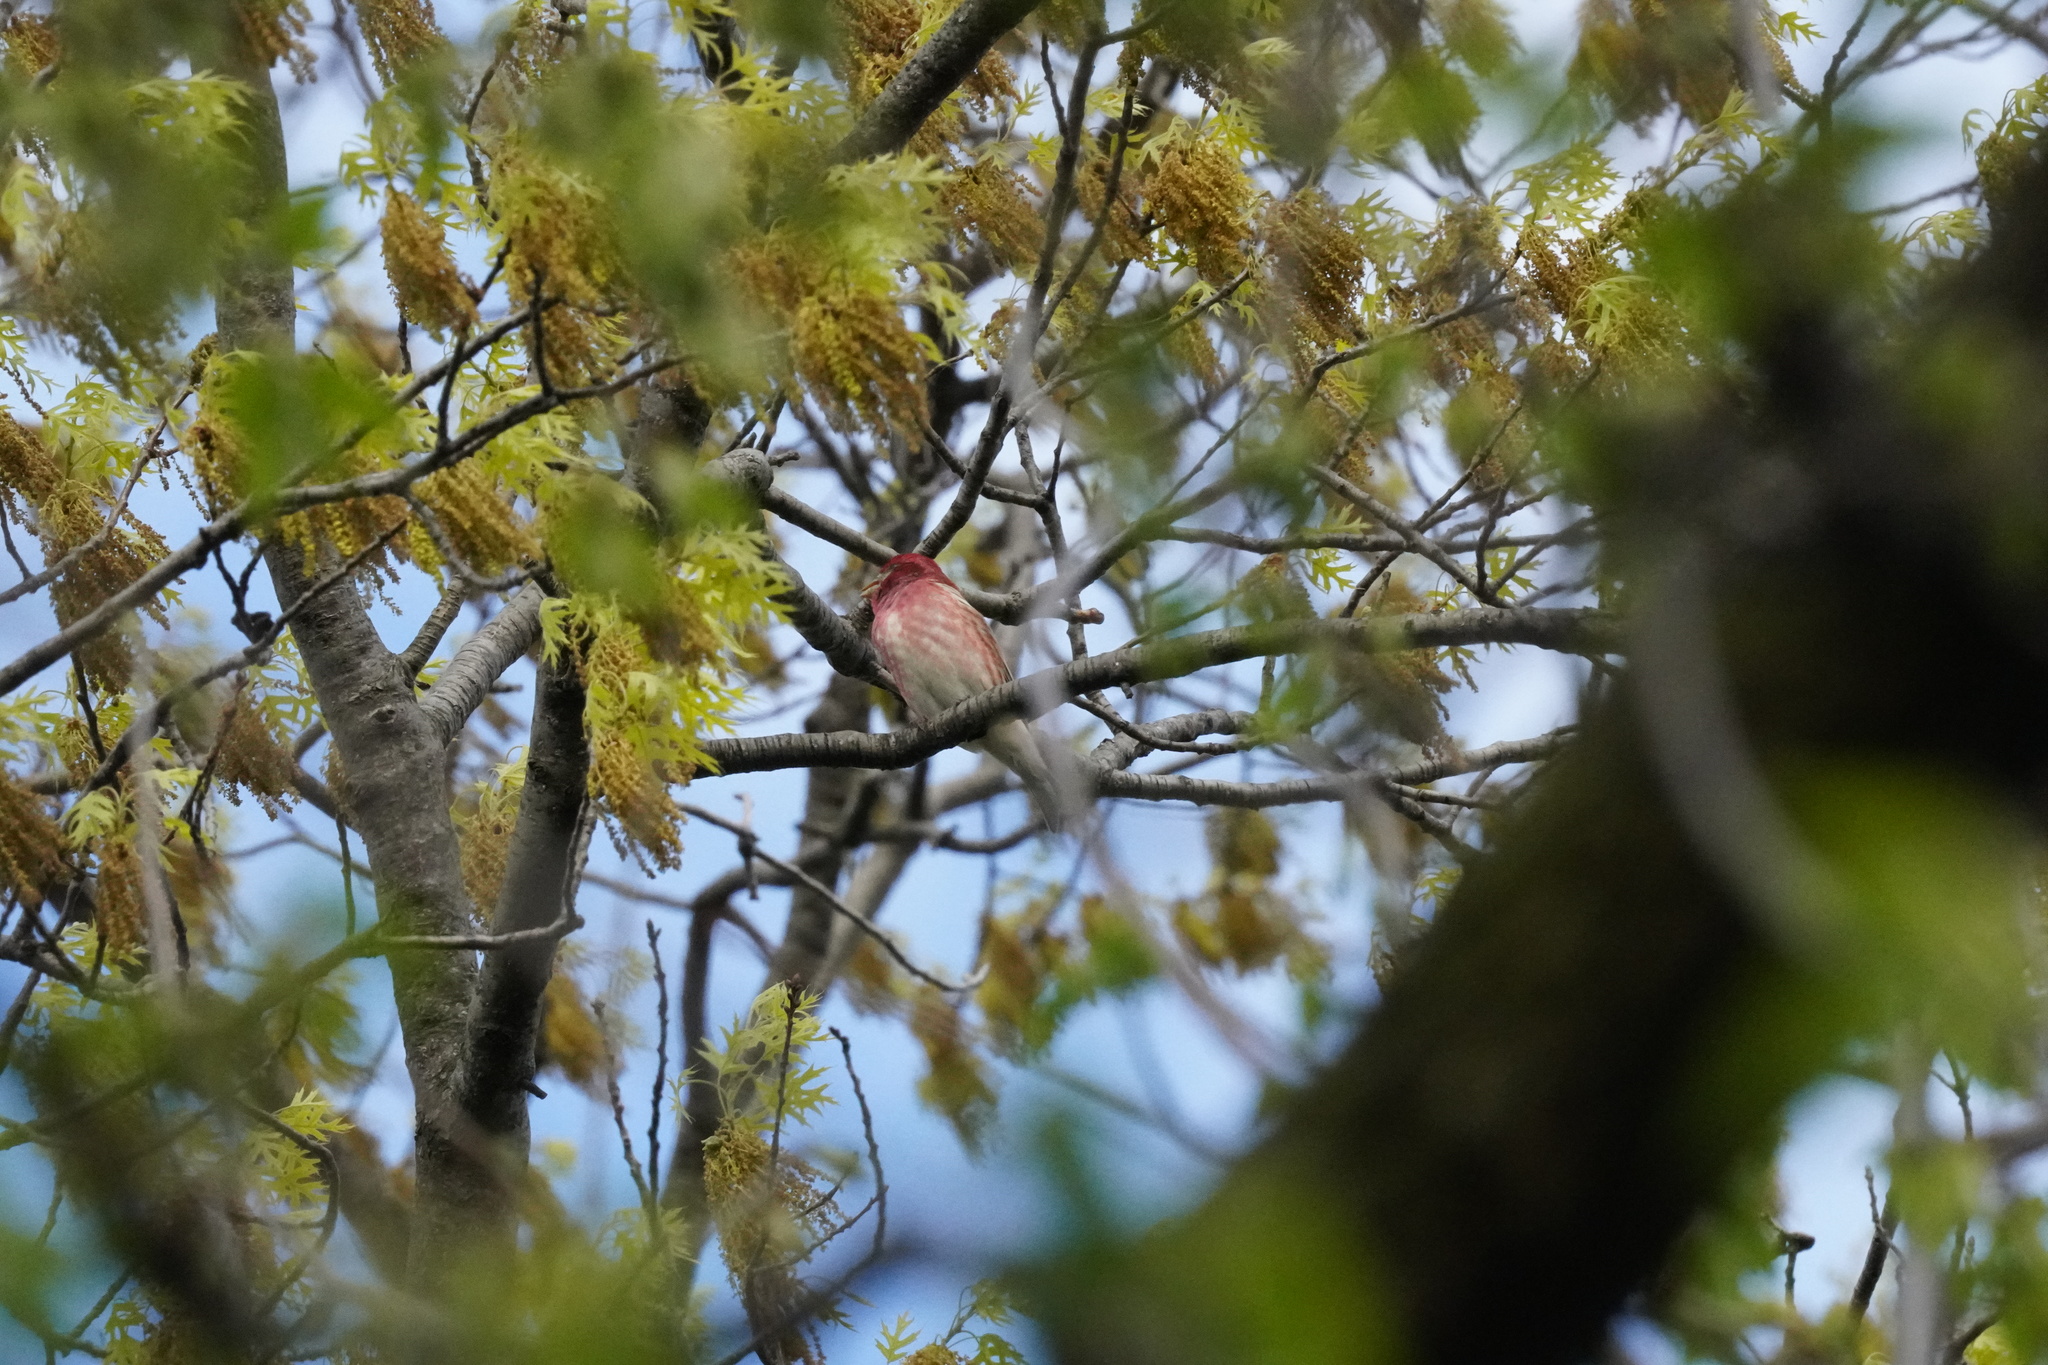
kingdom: Animalia
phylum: Chordata
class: Aves
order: Passeriformes
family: Fringillidae
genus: Haemorhous
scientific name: Haemorhous purpureus
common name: Purple finch
